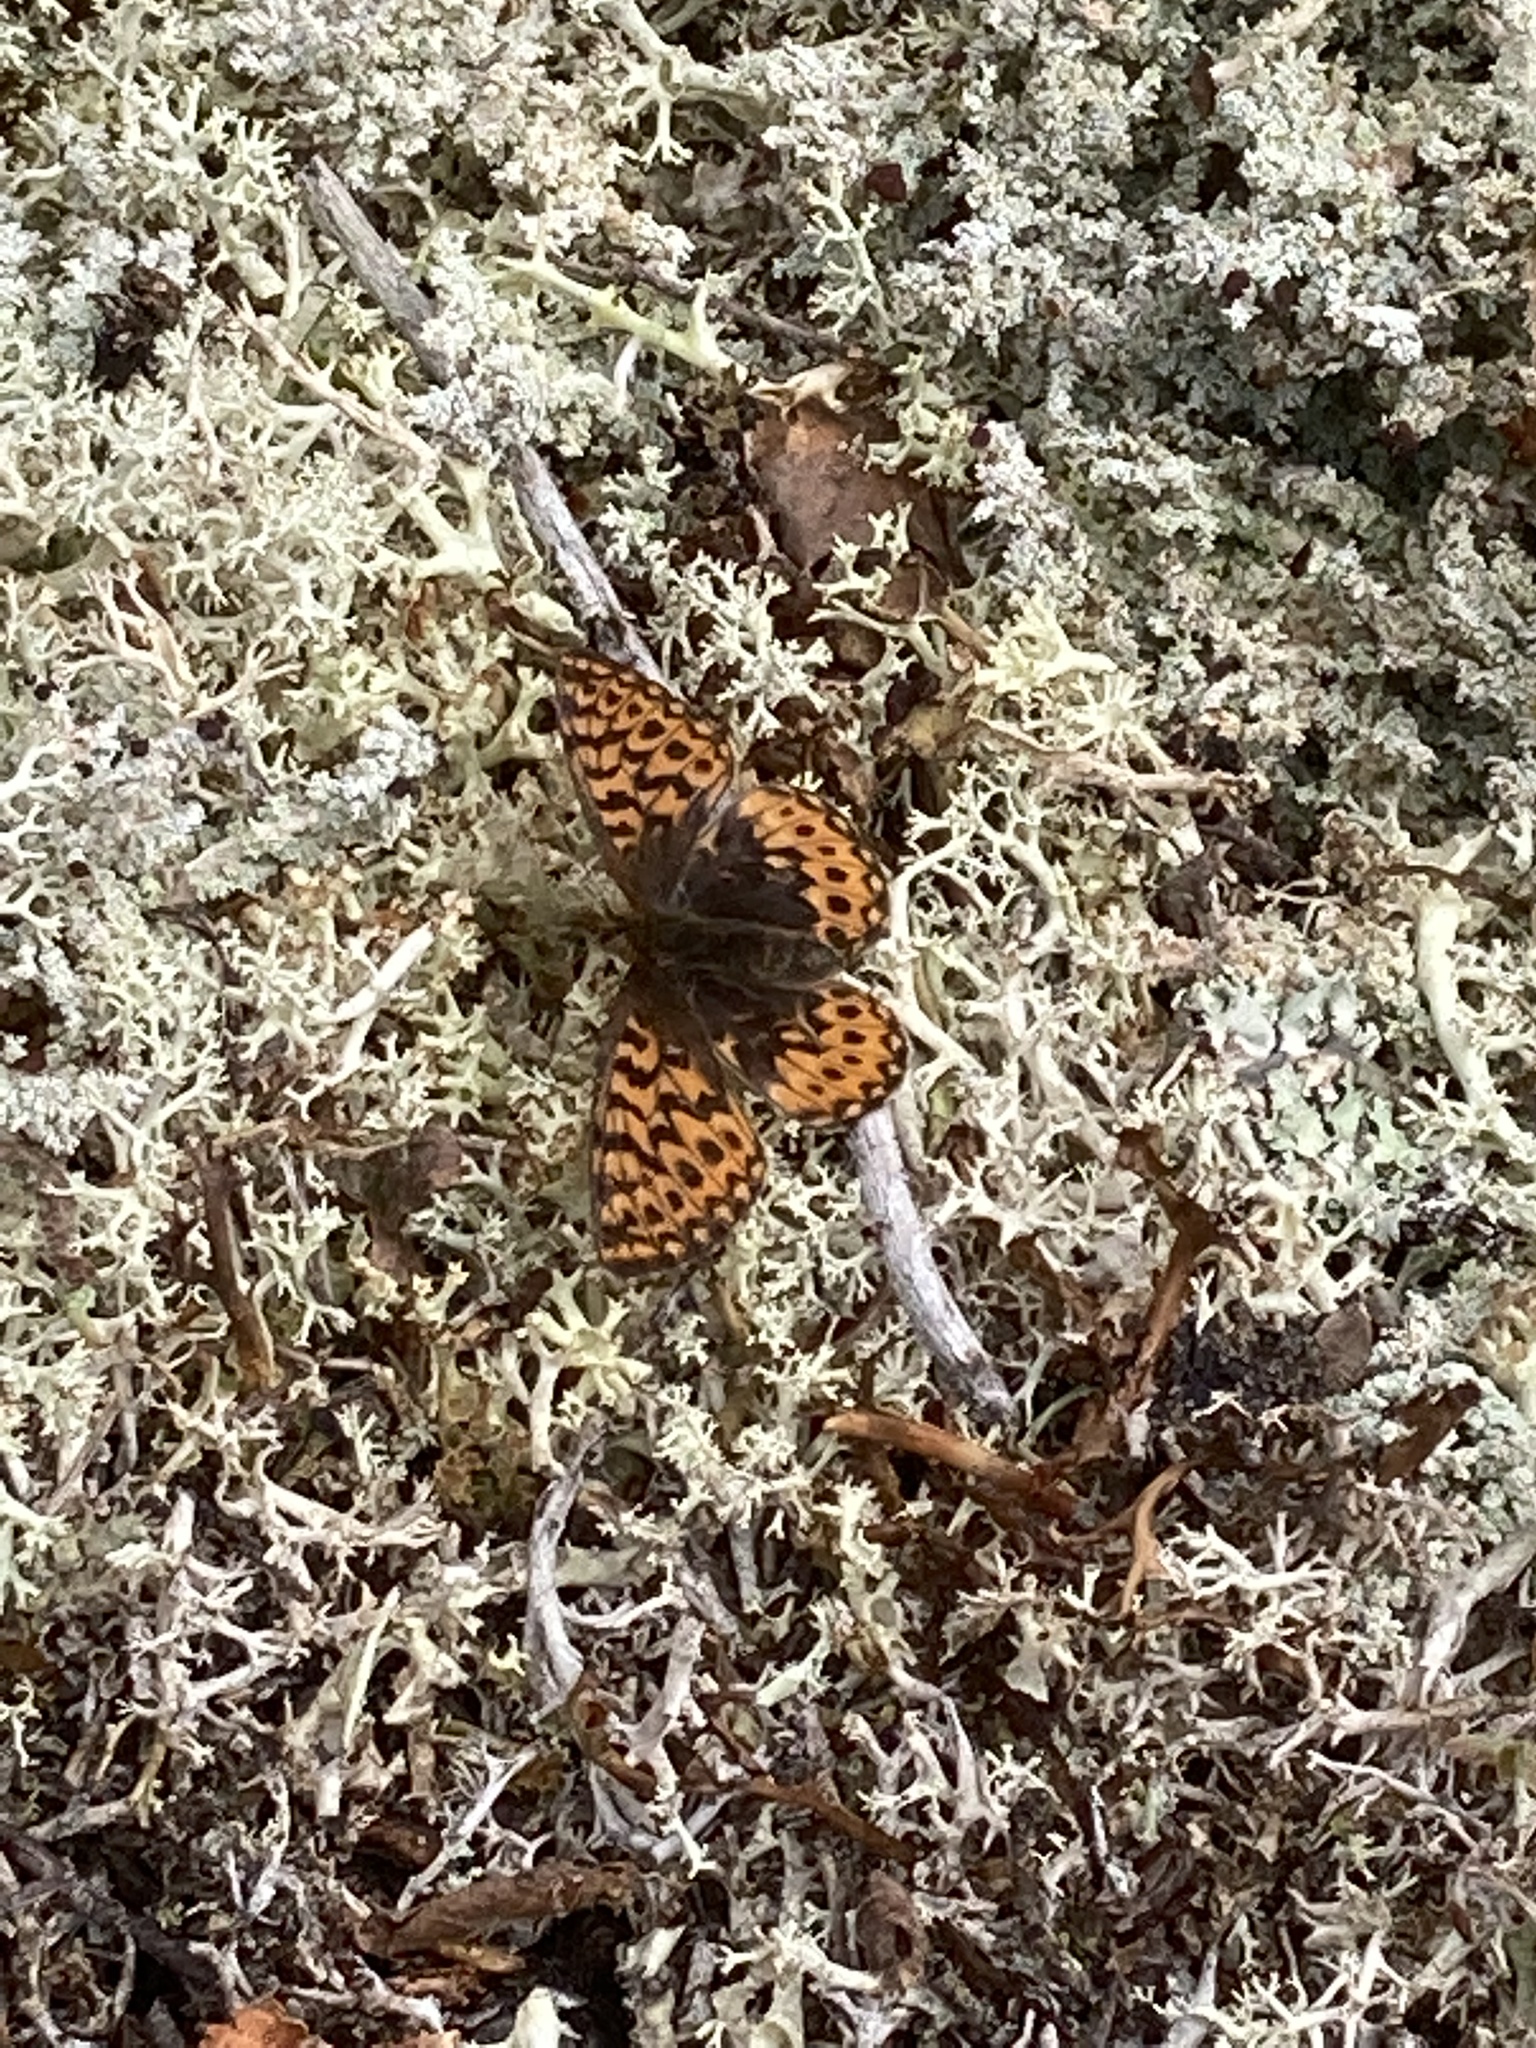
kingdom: Animalia
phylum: Arthropoda
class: Insecta
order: Lepidoptera
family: Nymphalidae
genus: Boloria
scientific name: Boloria freija
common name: Freija fritillary
